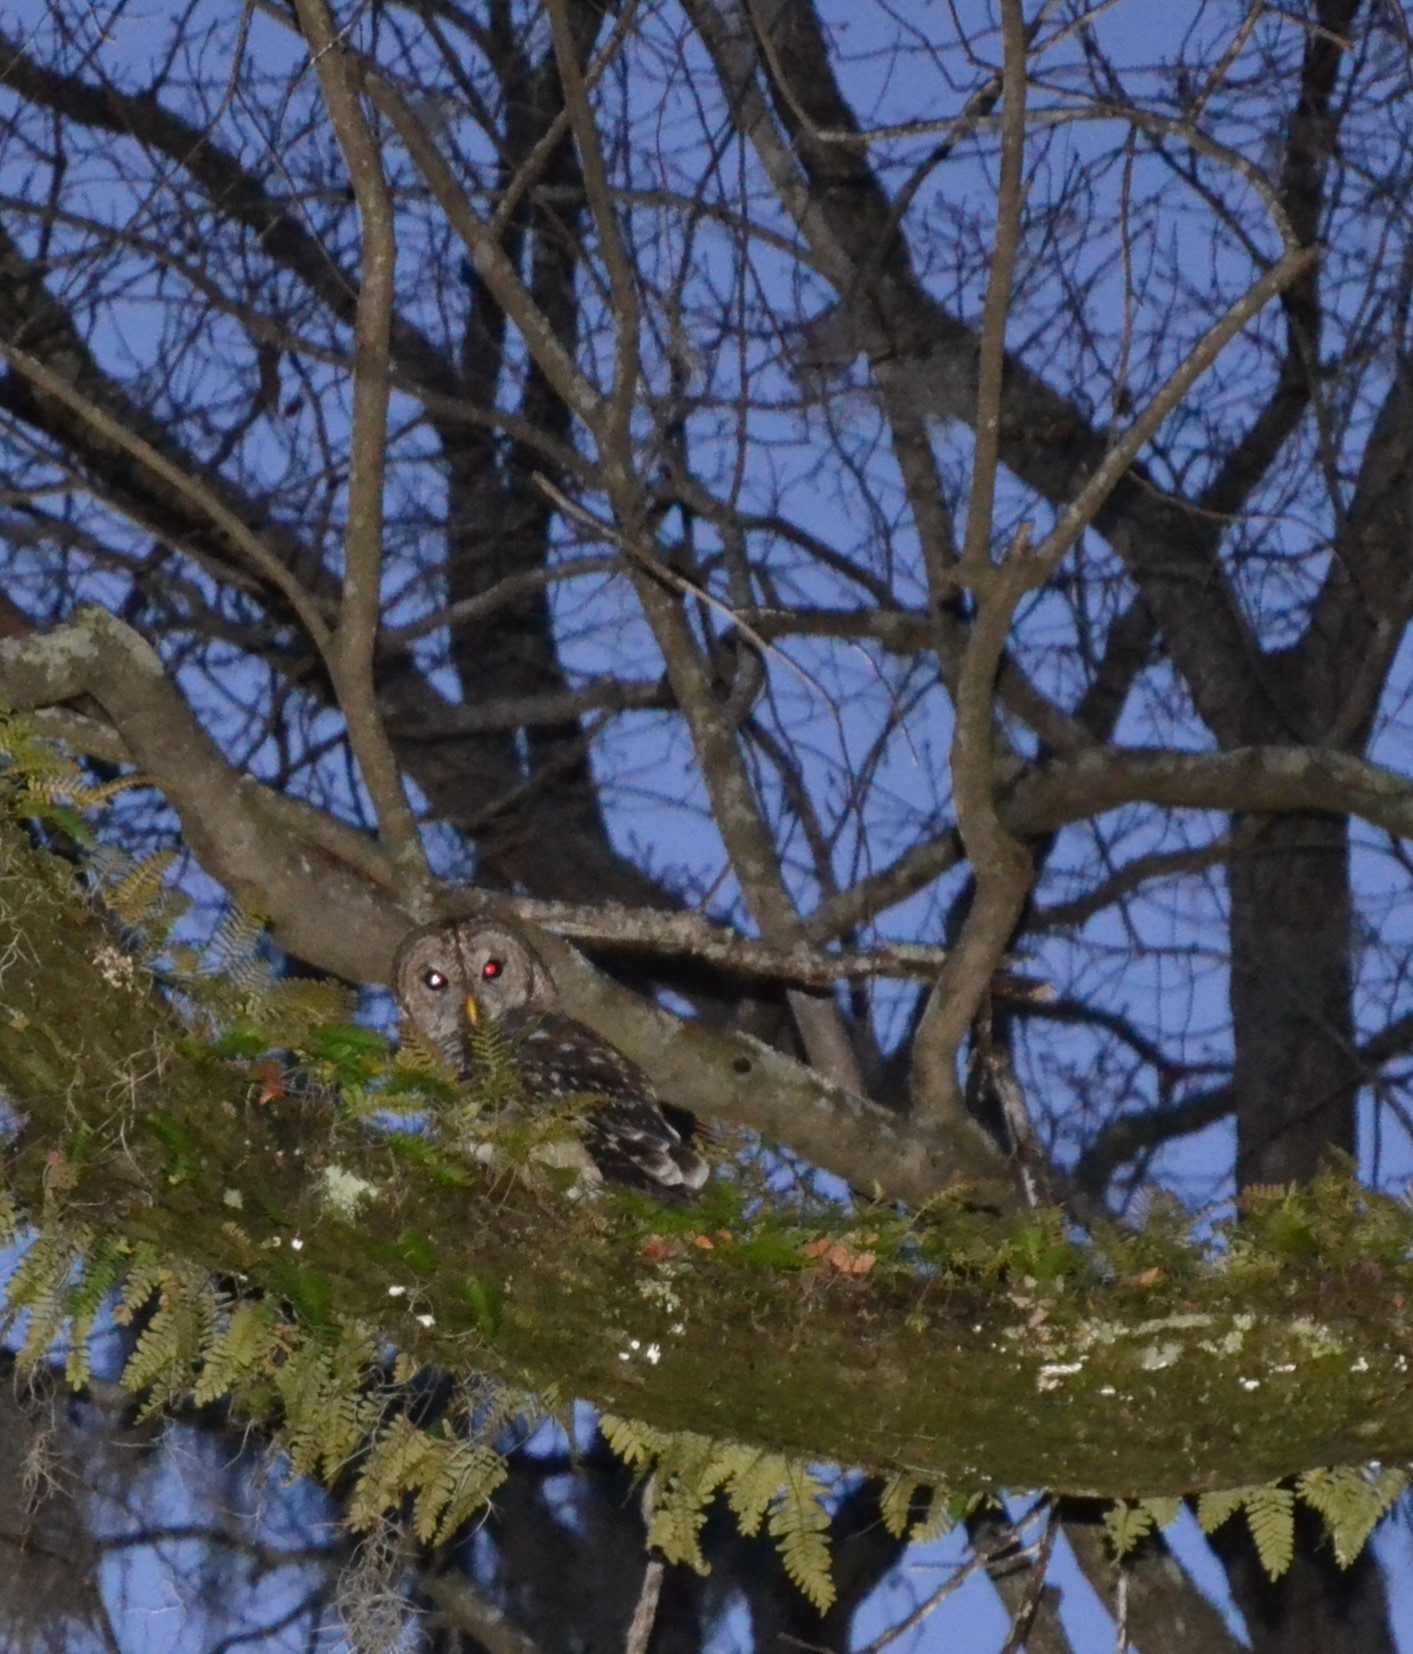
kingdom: Animalia
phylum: Chordata
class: Aves
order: Strigiformes
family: Strigidae
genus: Strix
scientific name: Strix varia
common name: Barred owl
